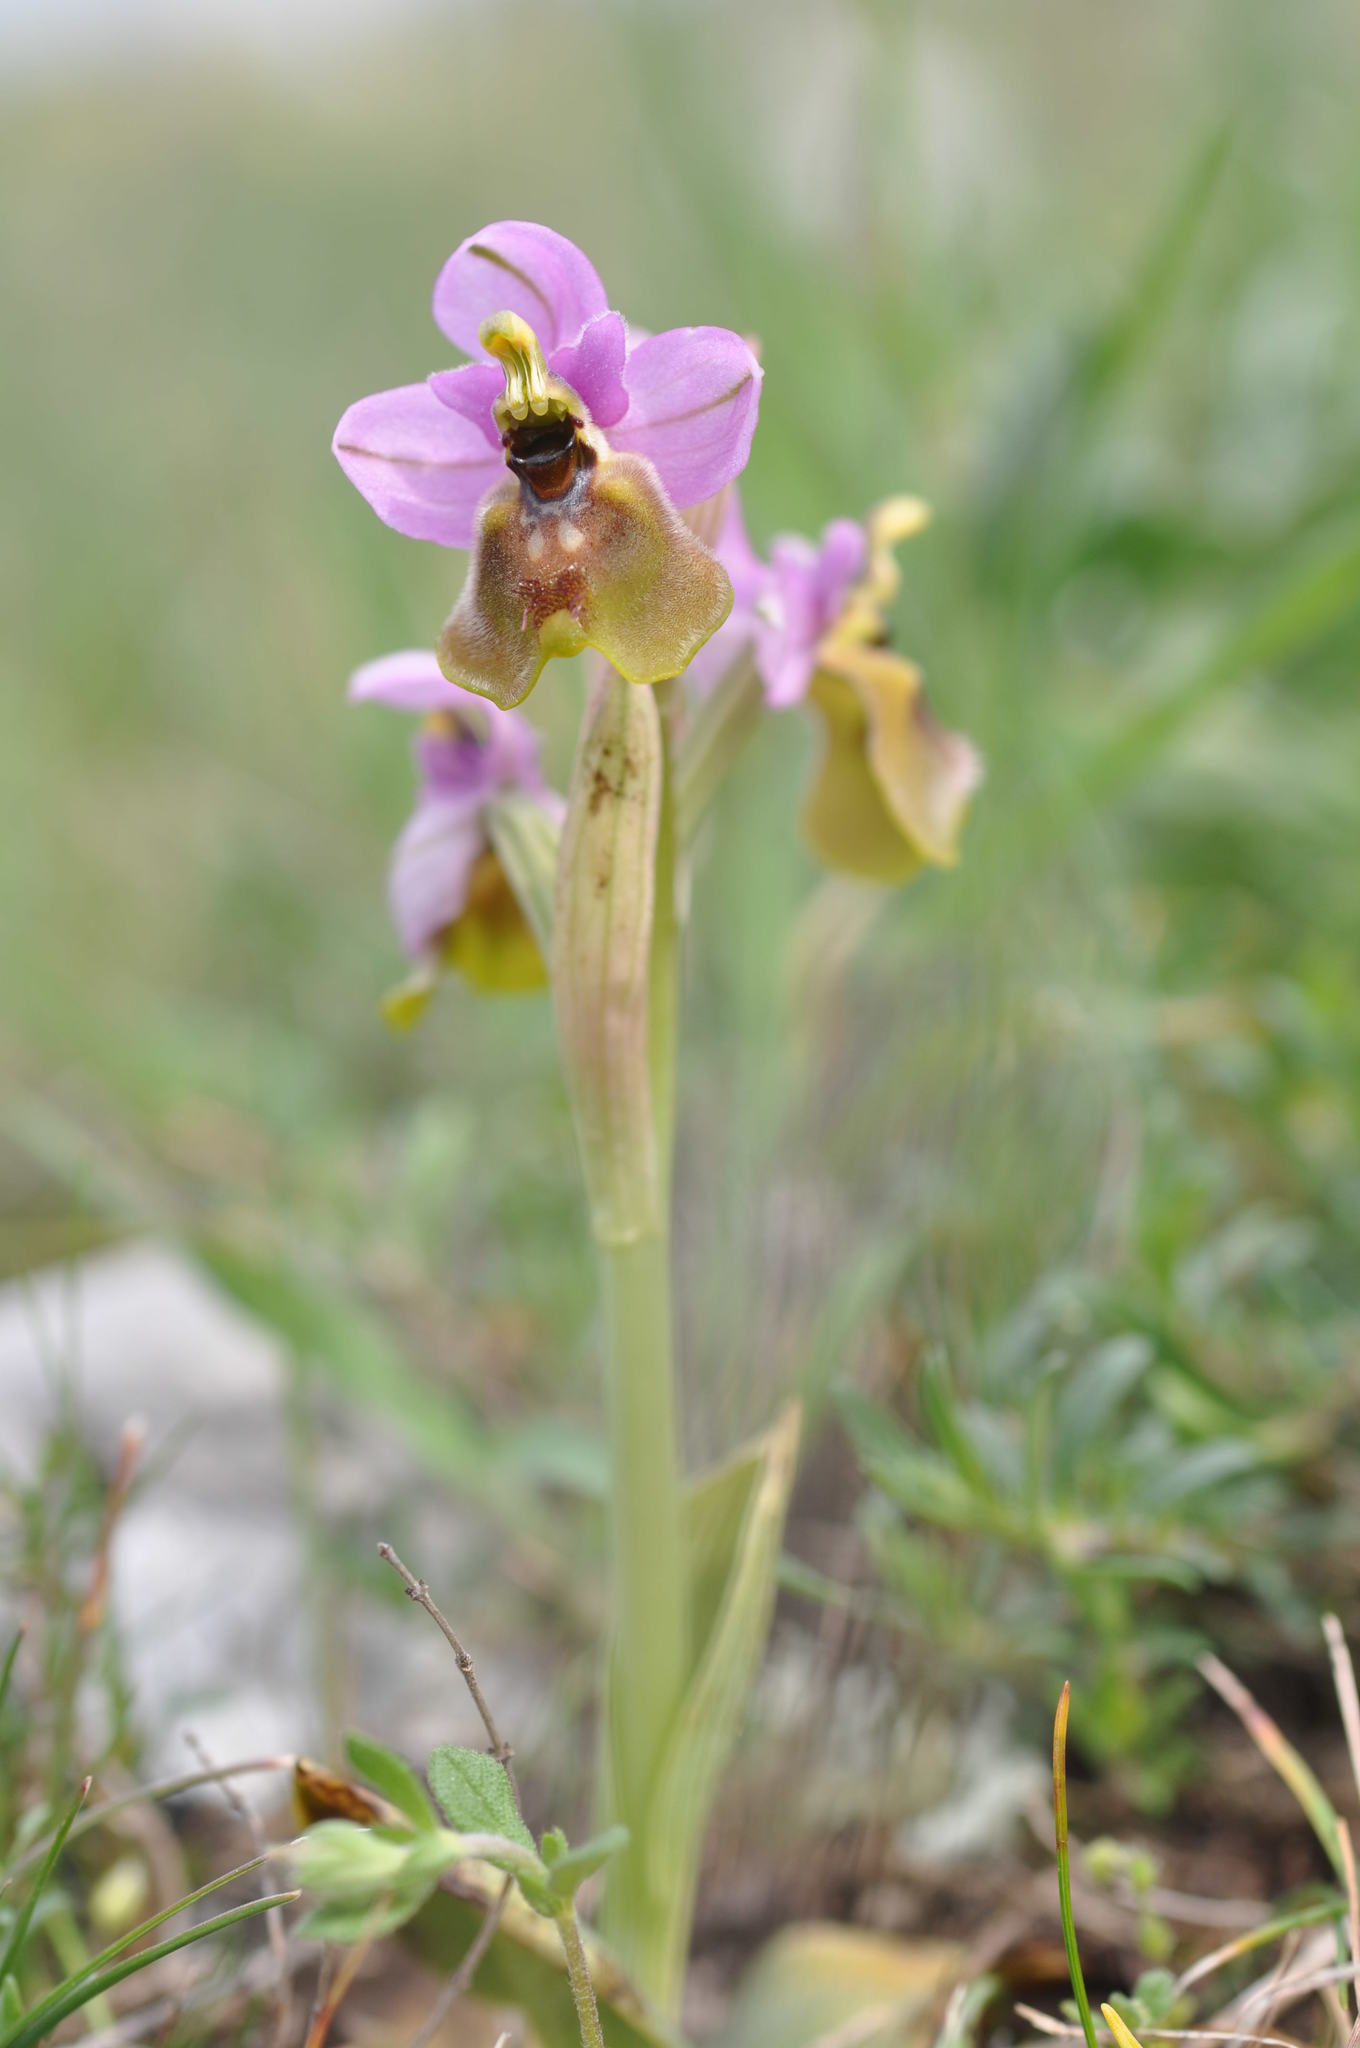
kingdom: Plantae
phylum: Tracheophyta
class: Liliopsida
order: Asparagales
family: Orchidaceae
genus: Ophrys
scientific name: Ophrys tenthredinifera
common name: Sawfly orchid
